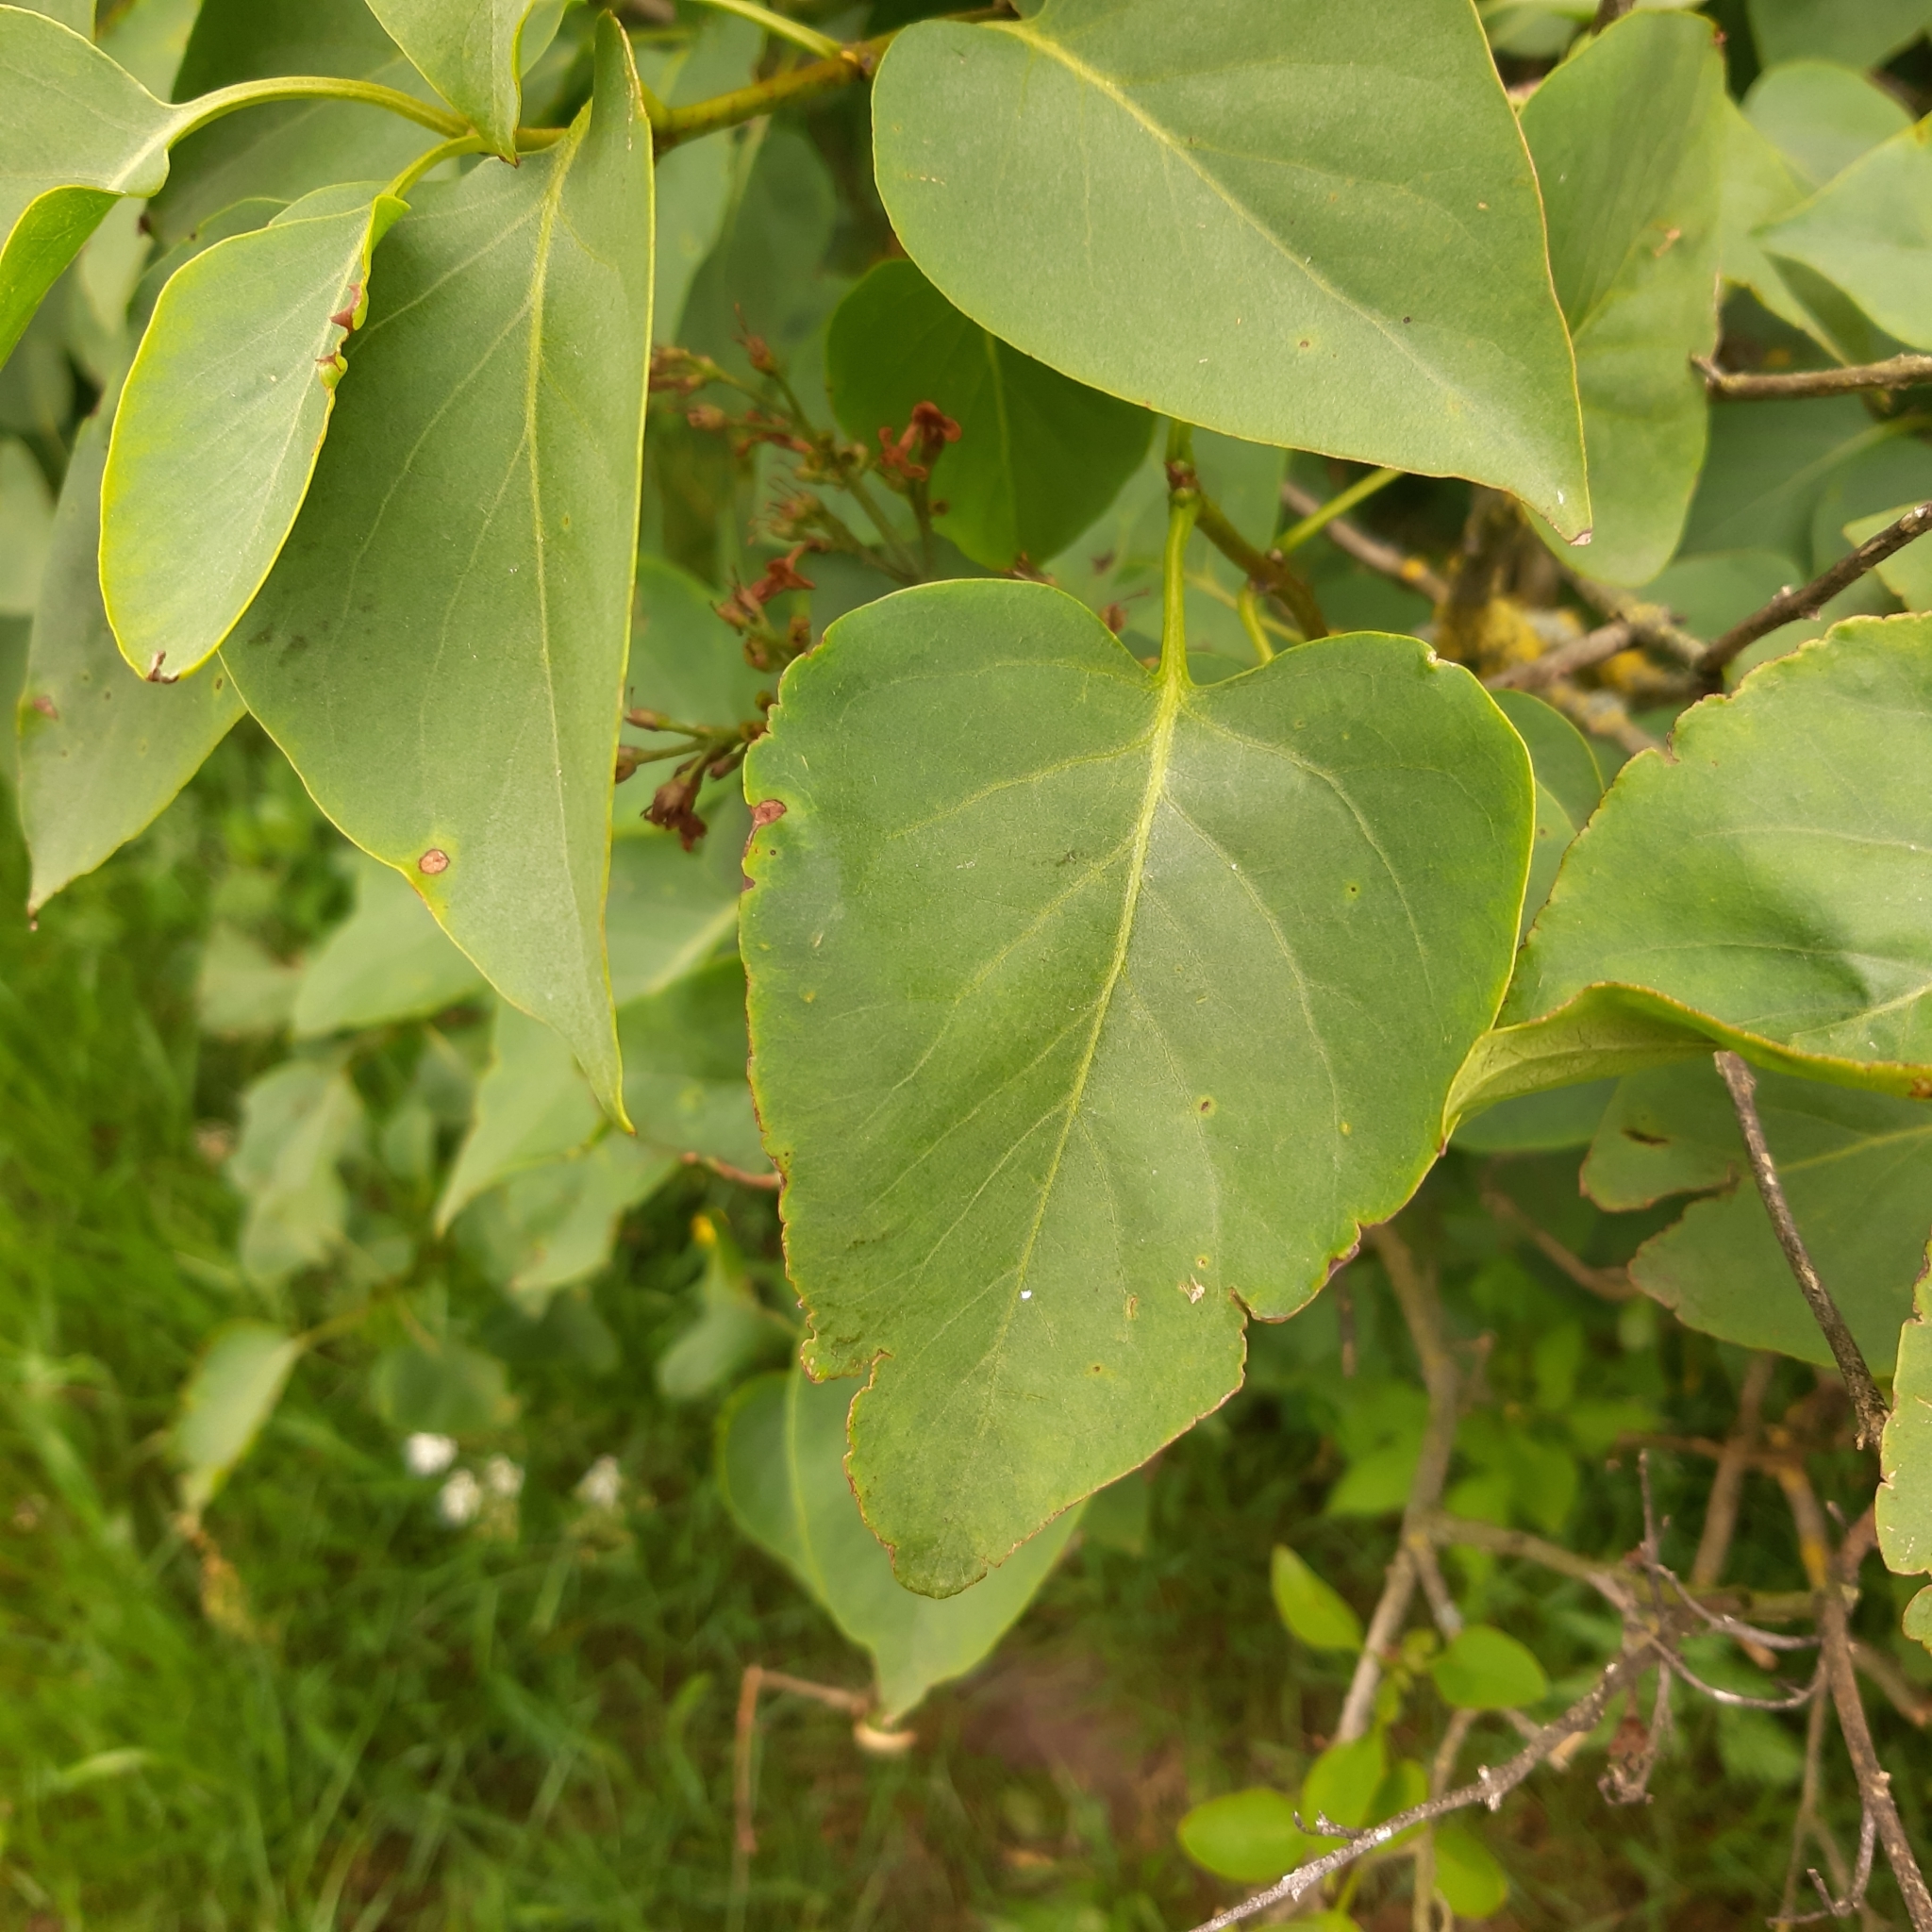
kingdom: Plantae
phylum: Tracheophyta
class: Magnoliopsida
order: Lamiales
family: Oleaceae
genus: Syringa
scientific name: Syringa vulgaris
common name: Common lilac
